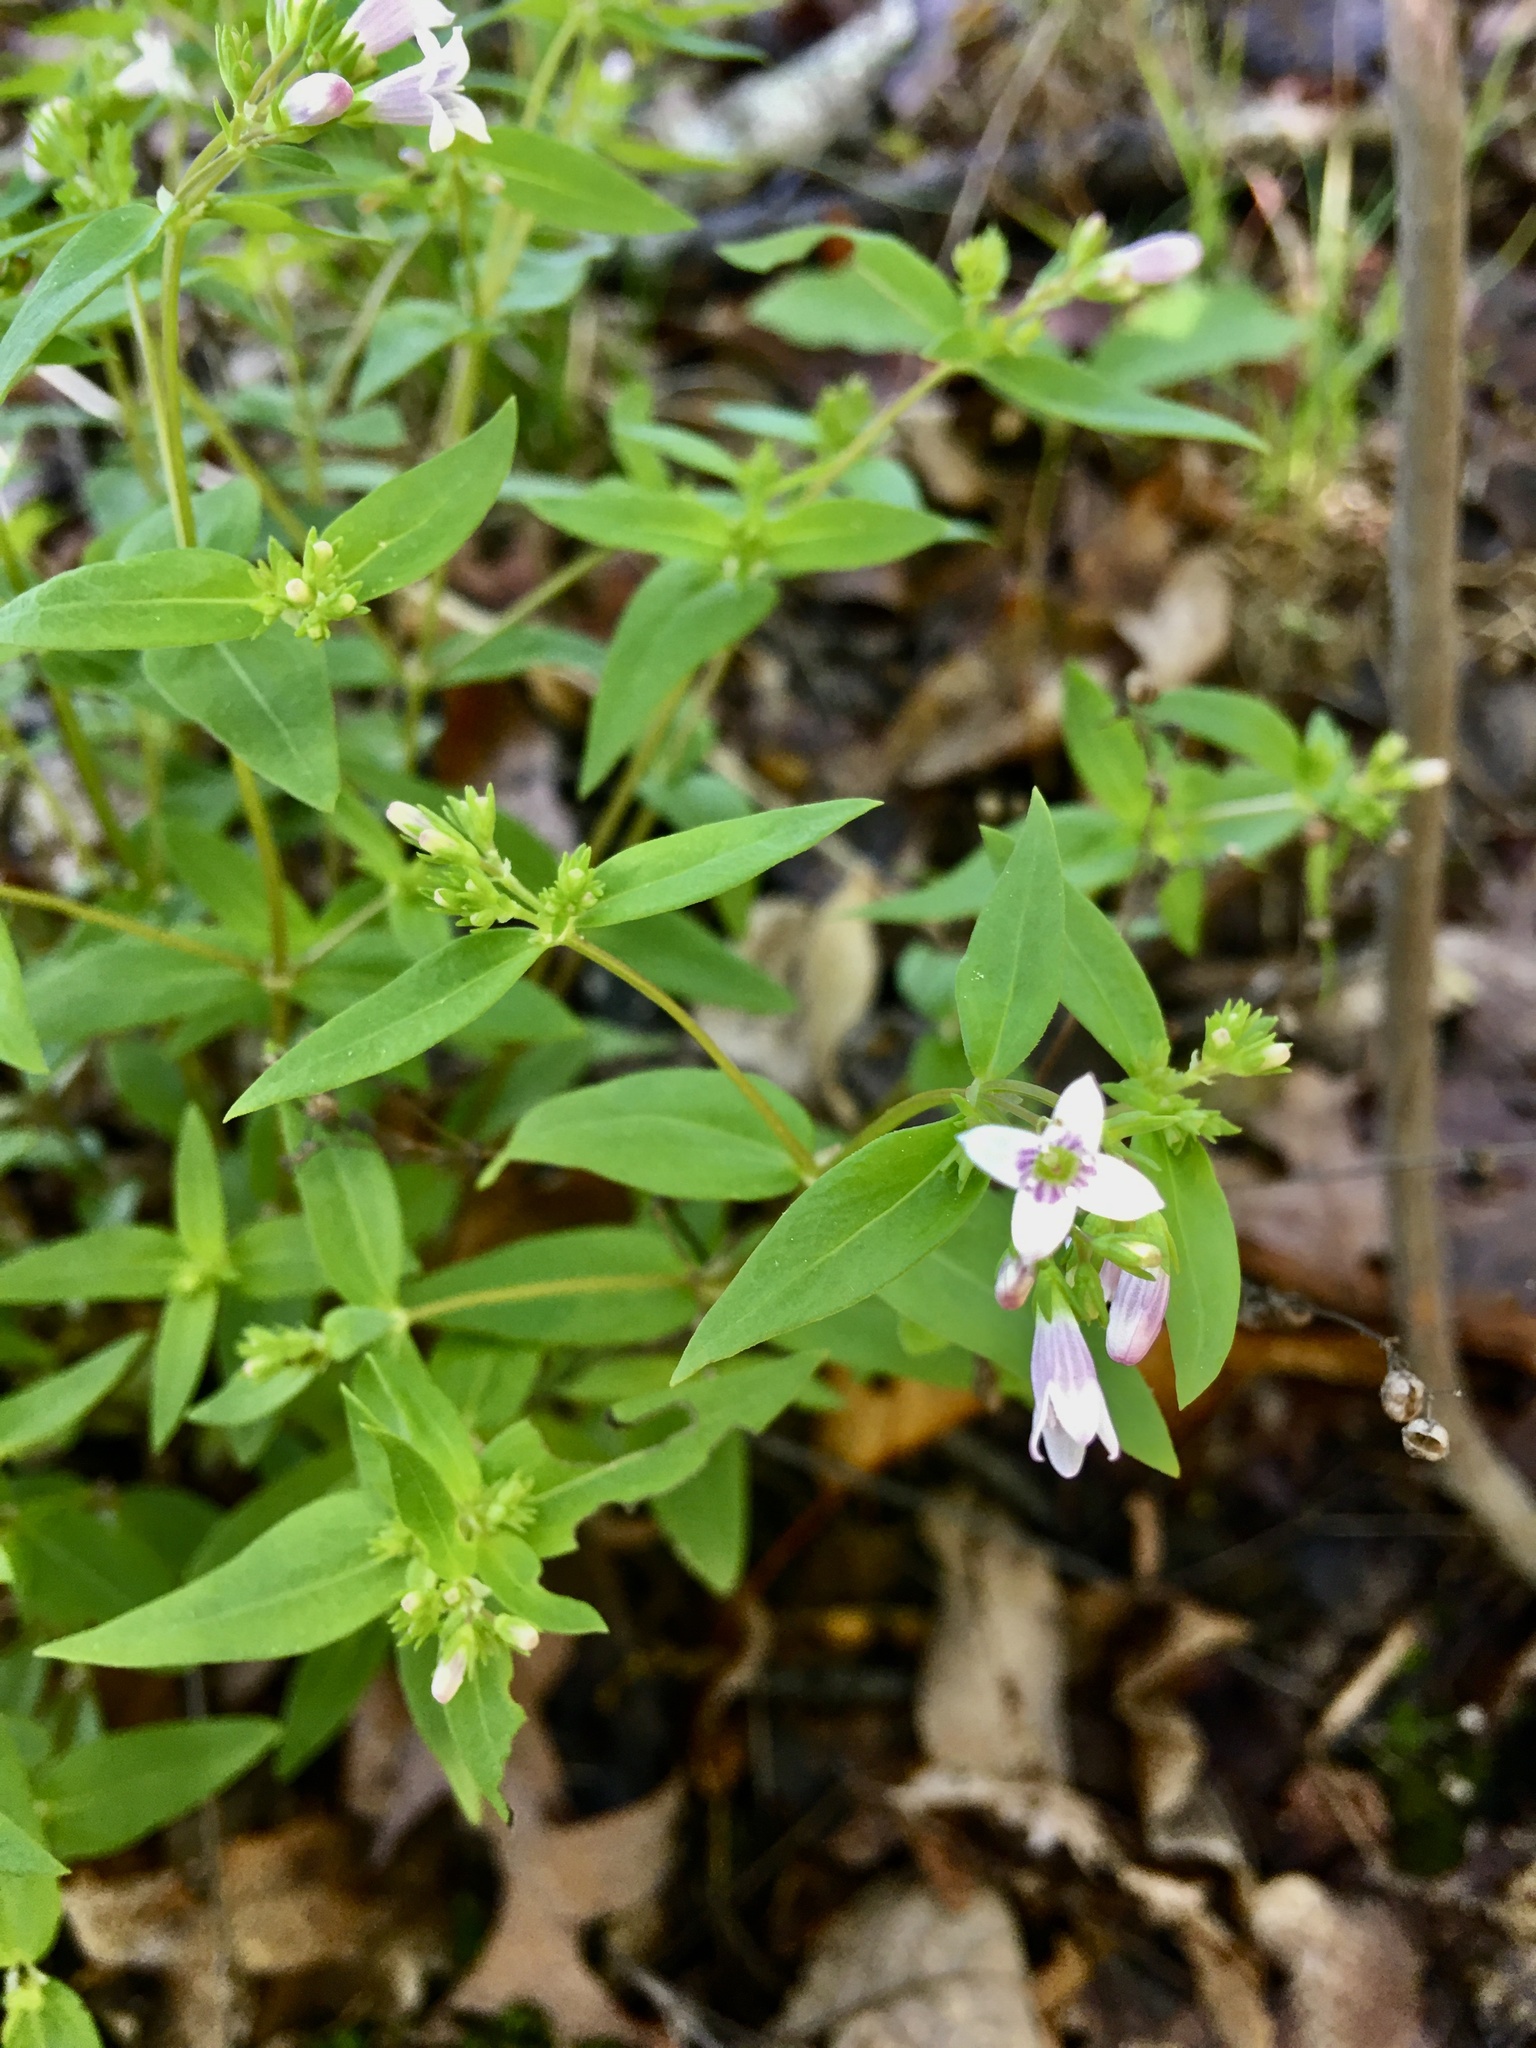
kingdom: Plantae
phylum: Tracheophyta
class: Magnoliopsida
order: Gentianales
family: Rubiaceae
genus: Houstonia
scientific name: Houstonia purpurea
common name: Summer bluet
